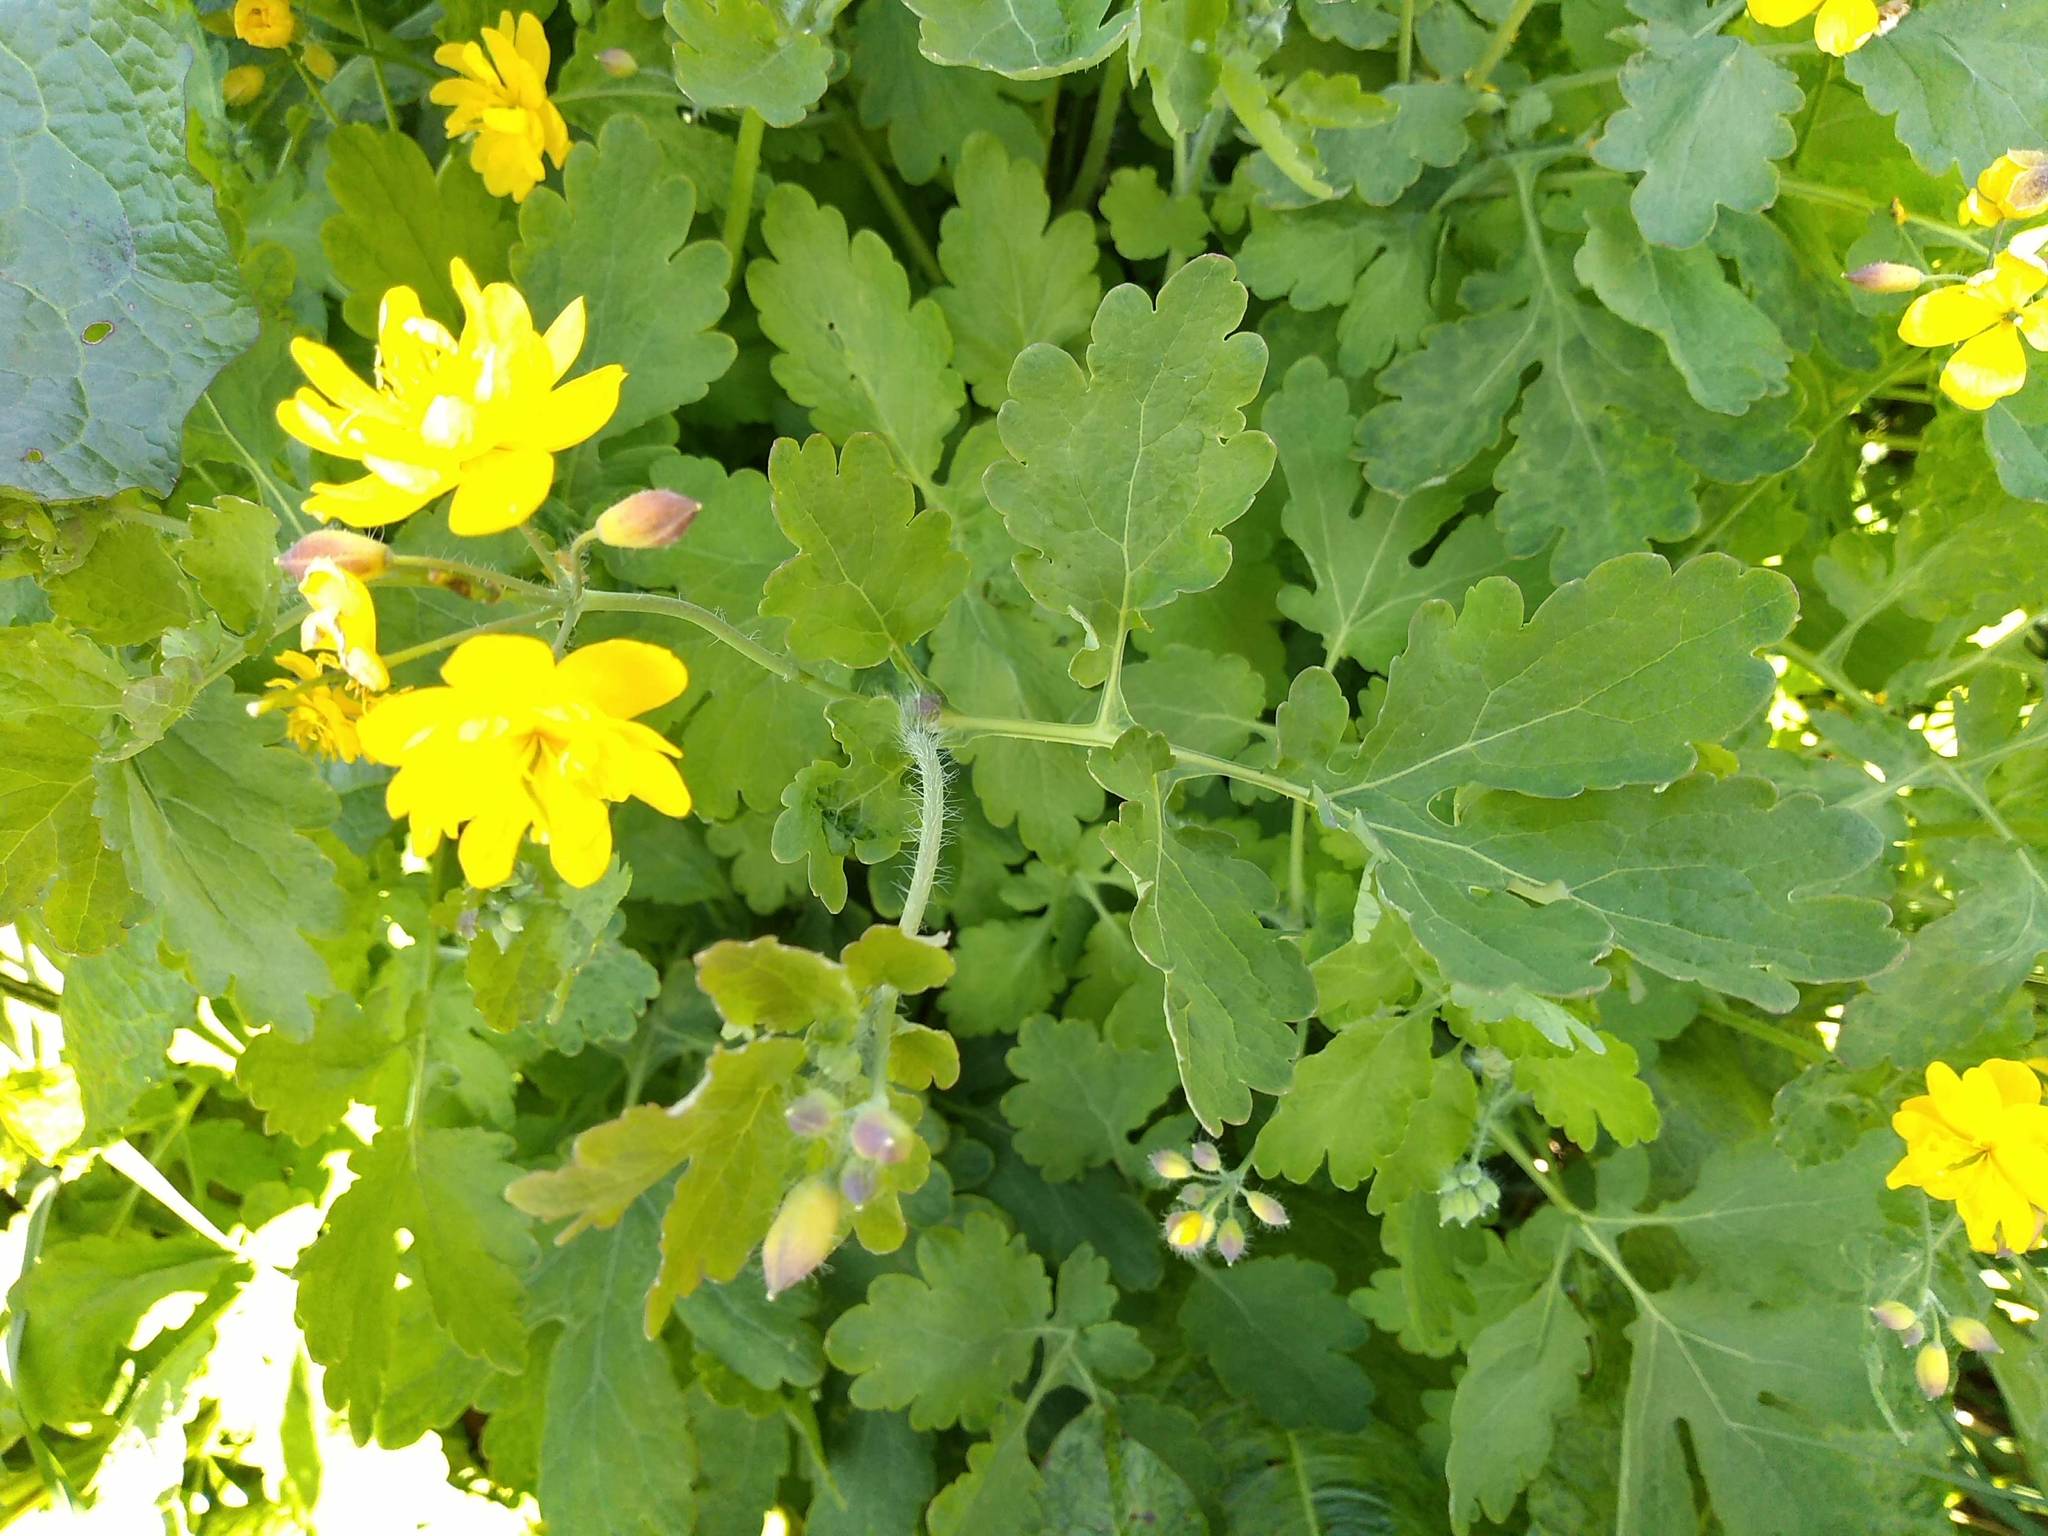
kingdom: Plantae
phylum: Tracheophyta
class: Magnoliopsida
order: Ranunculales
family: Papaveraceae
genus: Chelidonium
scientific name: Chelidonium majus
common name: Greater celandine
